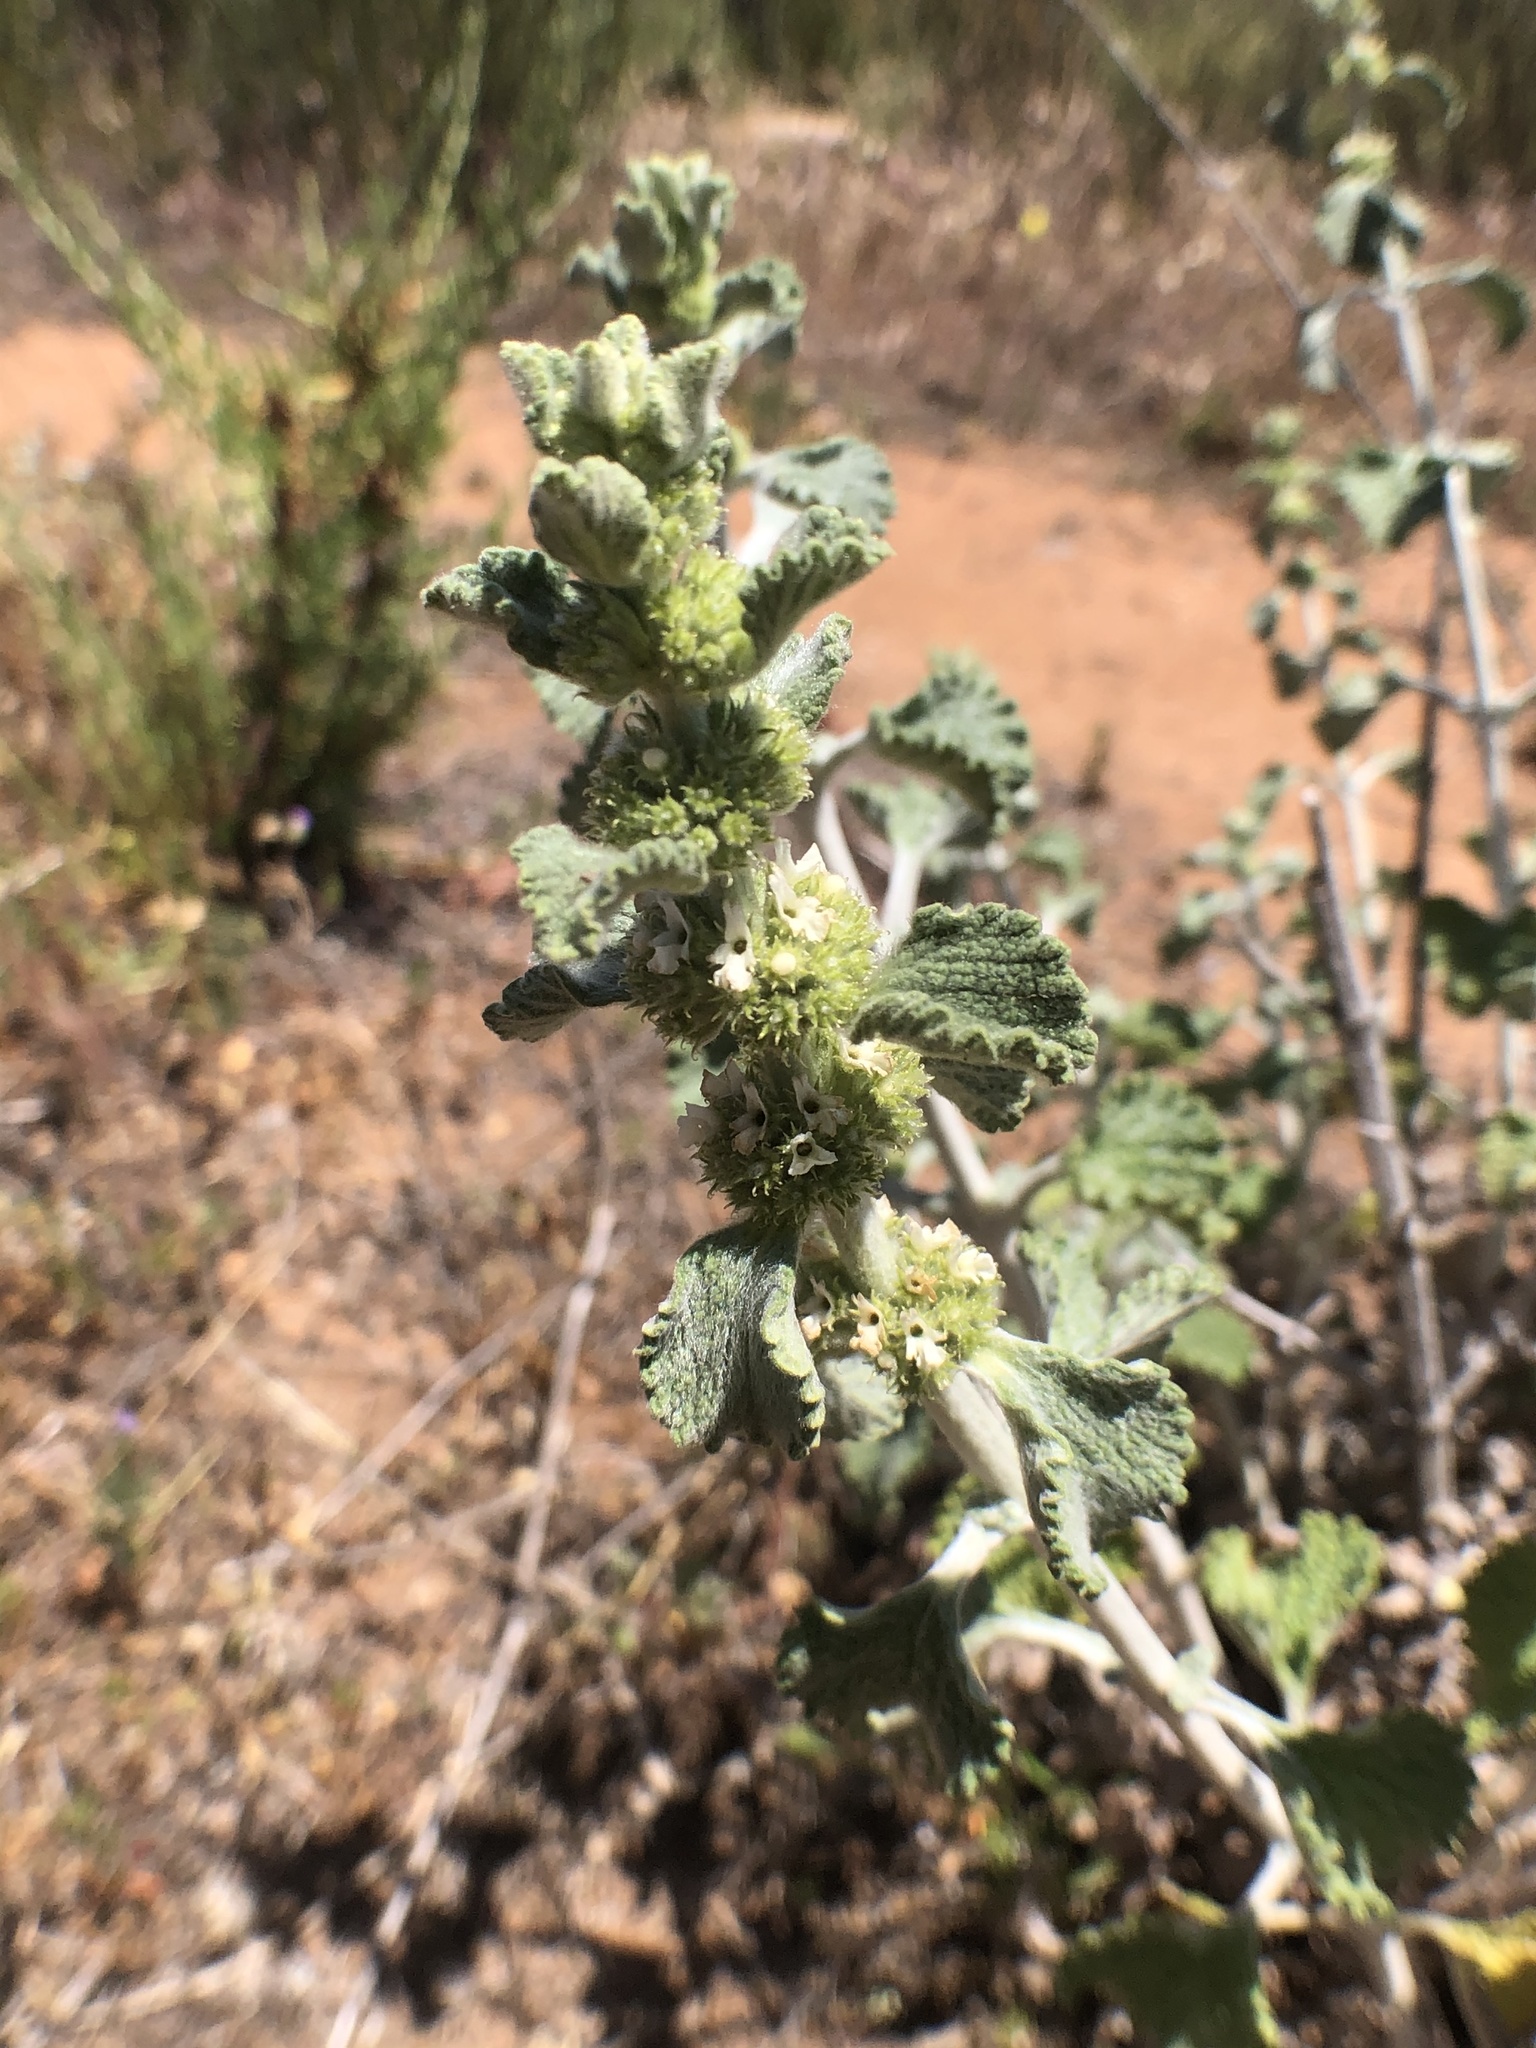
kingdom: Plantae
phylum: Tracheophyta
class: Magnoliopsida
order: Lamiales
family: Lamiaceae
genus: Marrubium
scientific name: Marrubium vulgare
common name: Horehound
